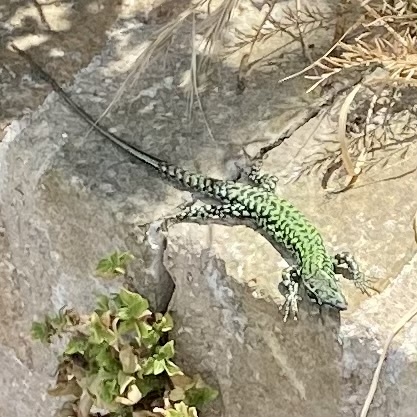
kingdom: Animalia
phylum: Chordata
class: Squamata
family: Lacertidae
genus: Podarcis
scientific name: Podarcis muralis
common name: Common wall lizard
